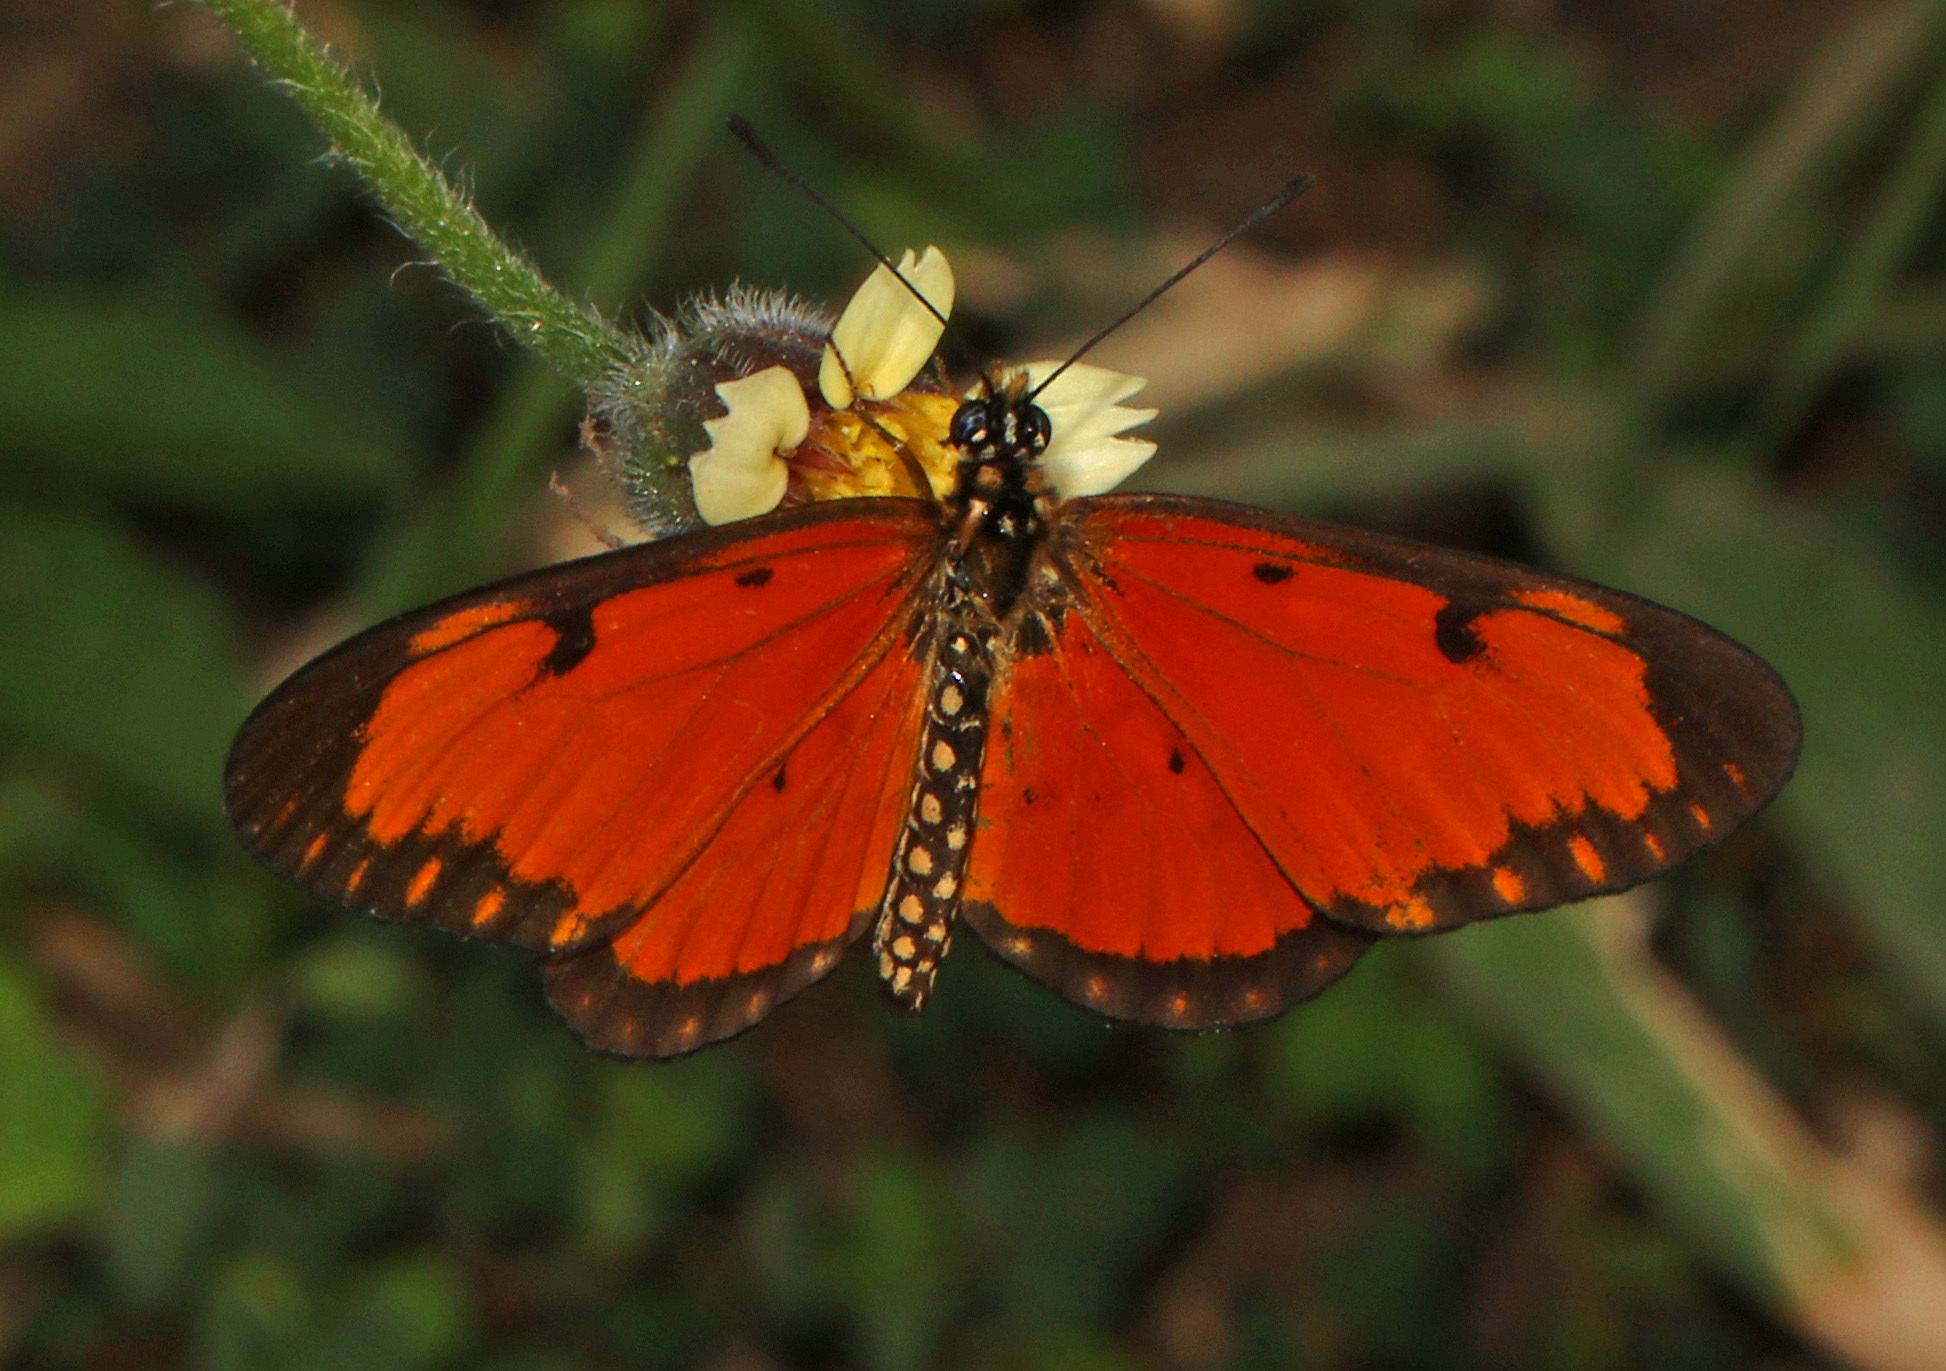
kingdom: Animalia
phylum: Arthropoda
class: Insecta
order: Lepidoptera
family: Nymphalidae
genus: Acraea
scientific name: Acraea Telchinia serena
